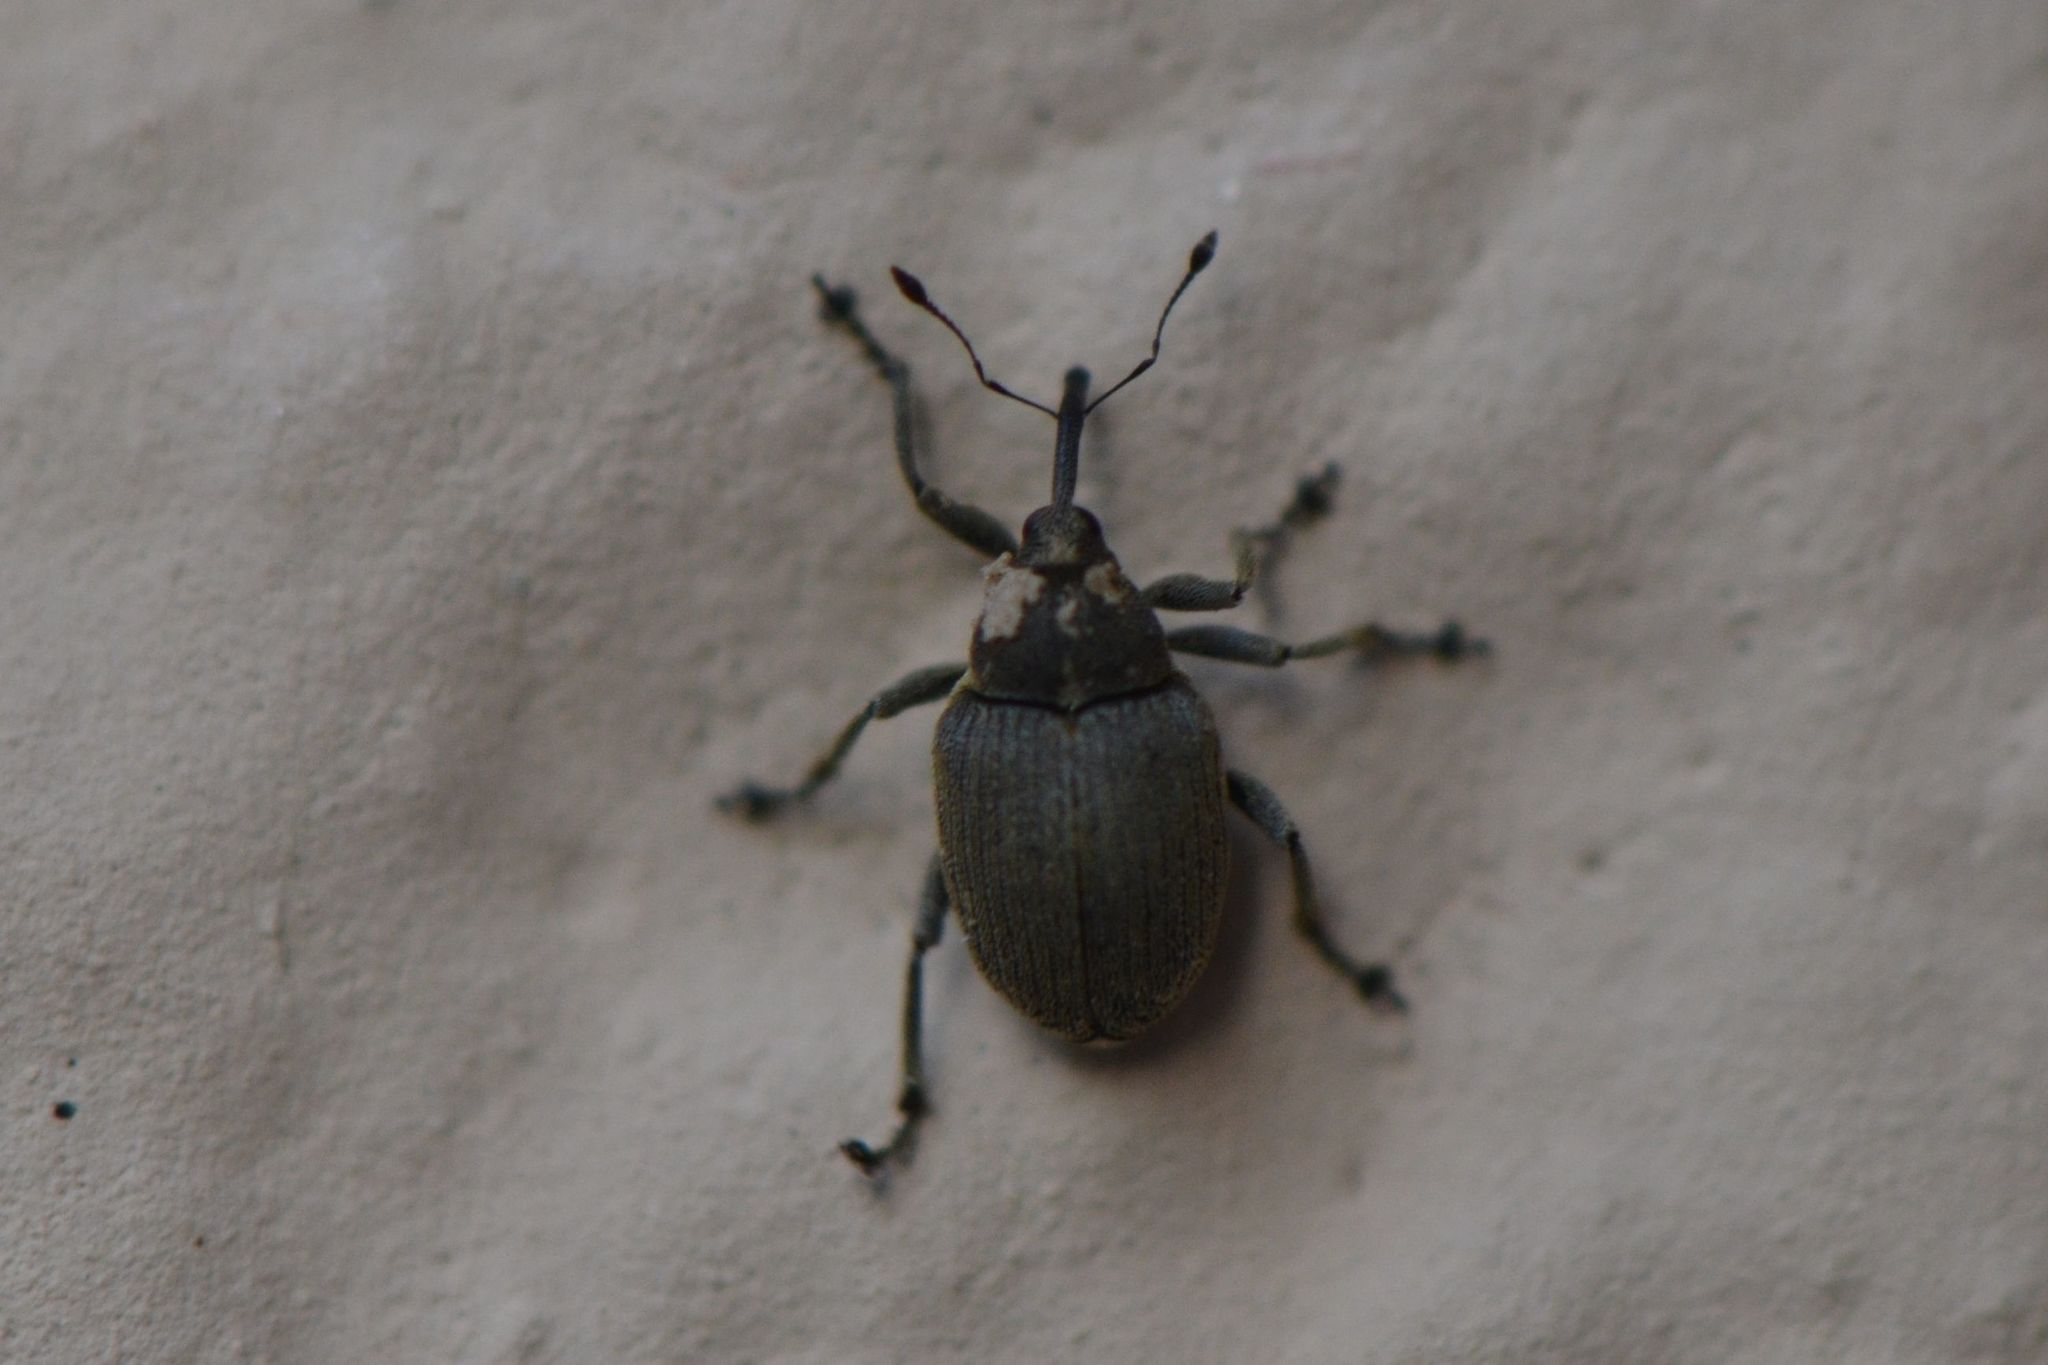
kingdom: Animalia
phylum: Arthropoda
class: Insecta
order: Coleoptera
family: Curculionidae
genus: Ceutorhynchus
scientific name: Ceutorhynchus napi
